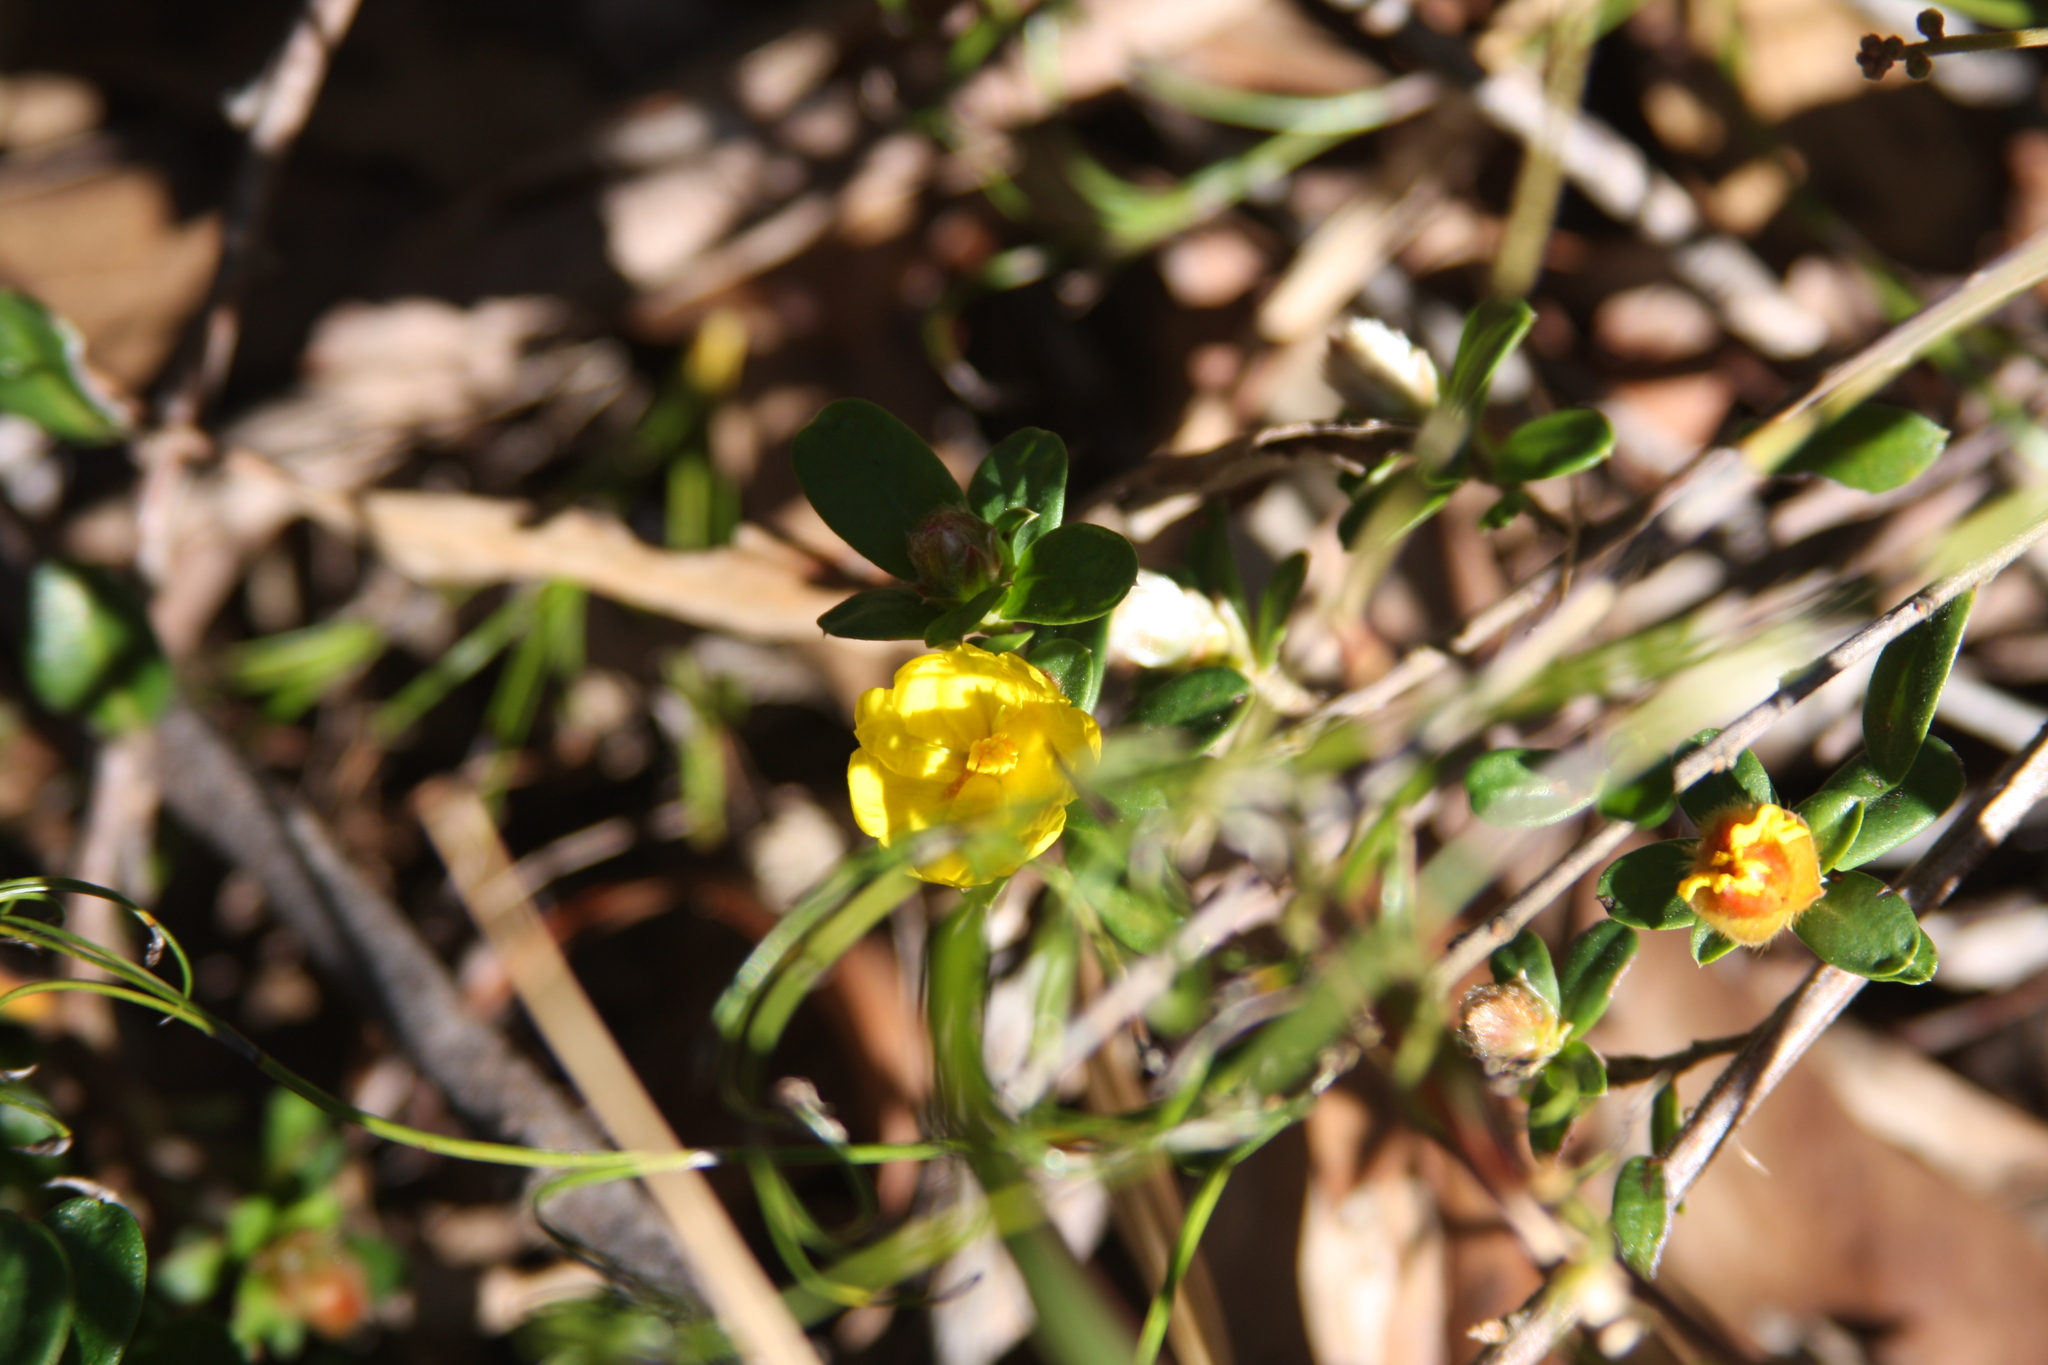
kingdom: Plantae
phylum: Tracheophyta
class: Magnoliopsida
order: Dilleniales
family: Dilleniaceae
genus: Hibbertia
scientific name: Hibbertia bracteata
